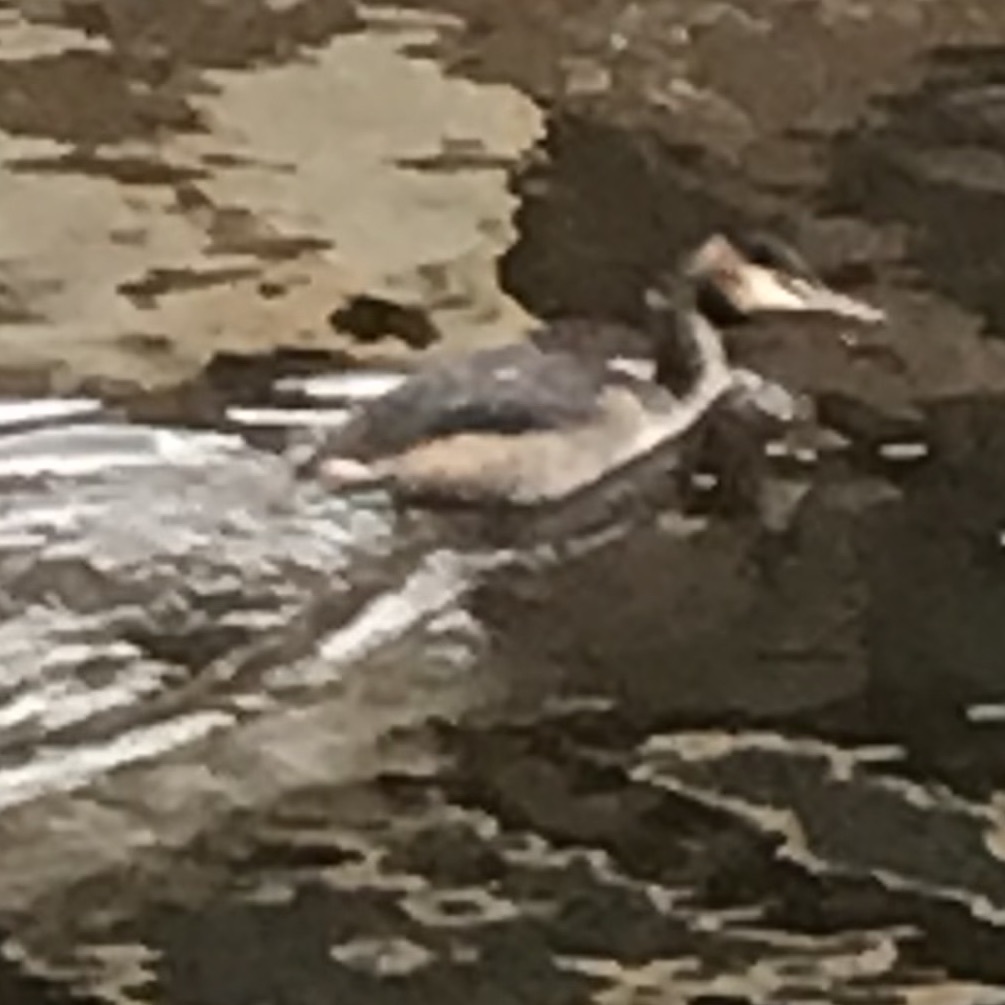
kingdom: Animalia
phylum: Chordata
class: Aves
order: Podicipediformes
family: Podicipedidae
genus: Podiceps
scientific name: Podiceps cristatus
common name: Great crested grebe
